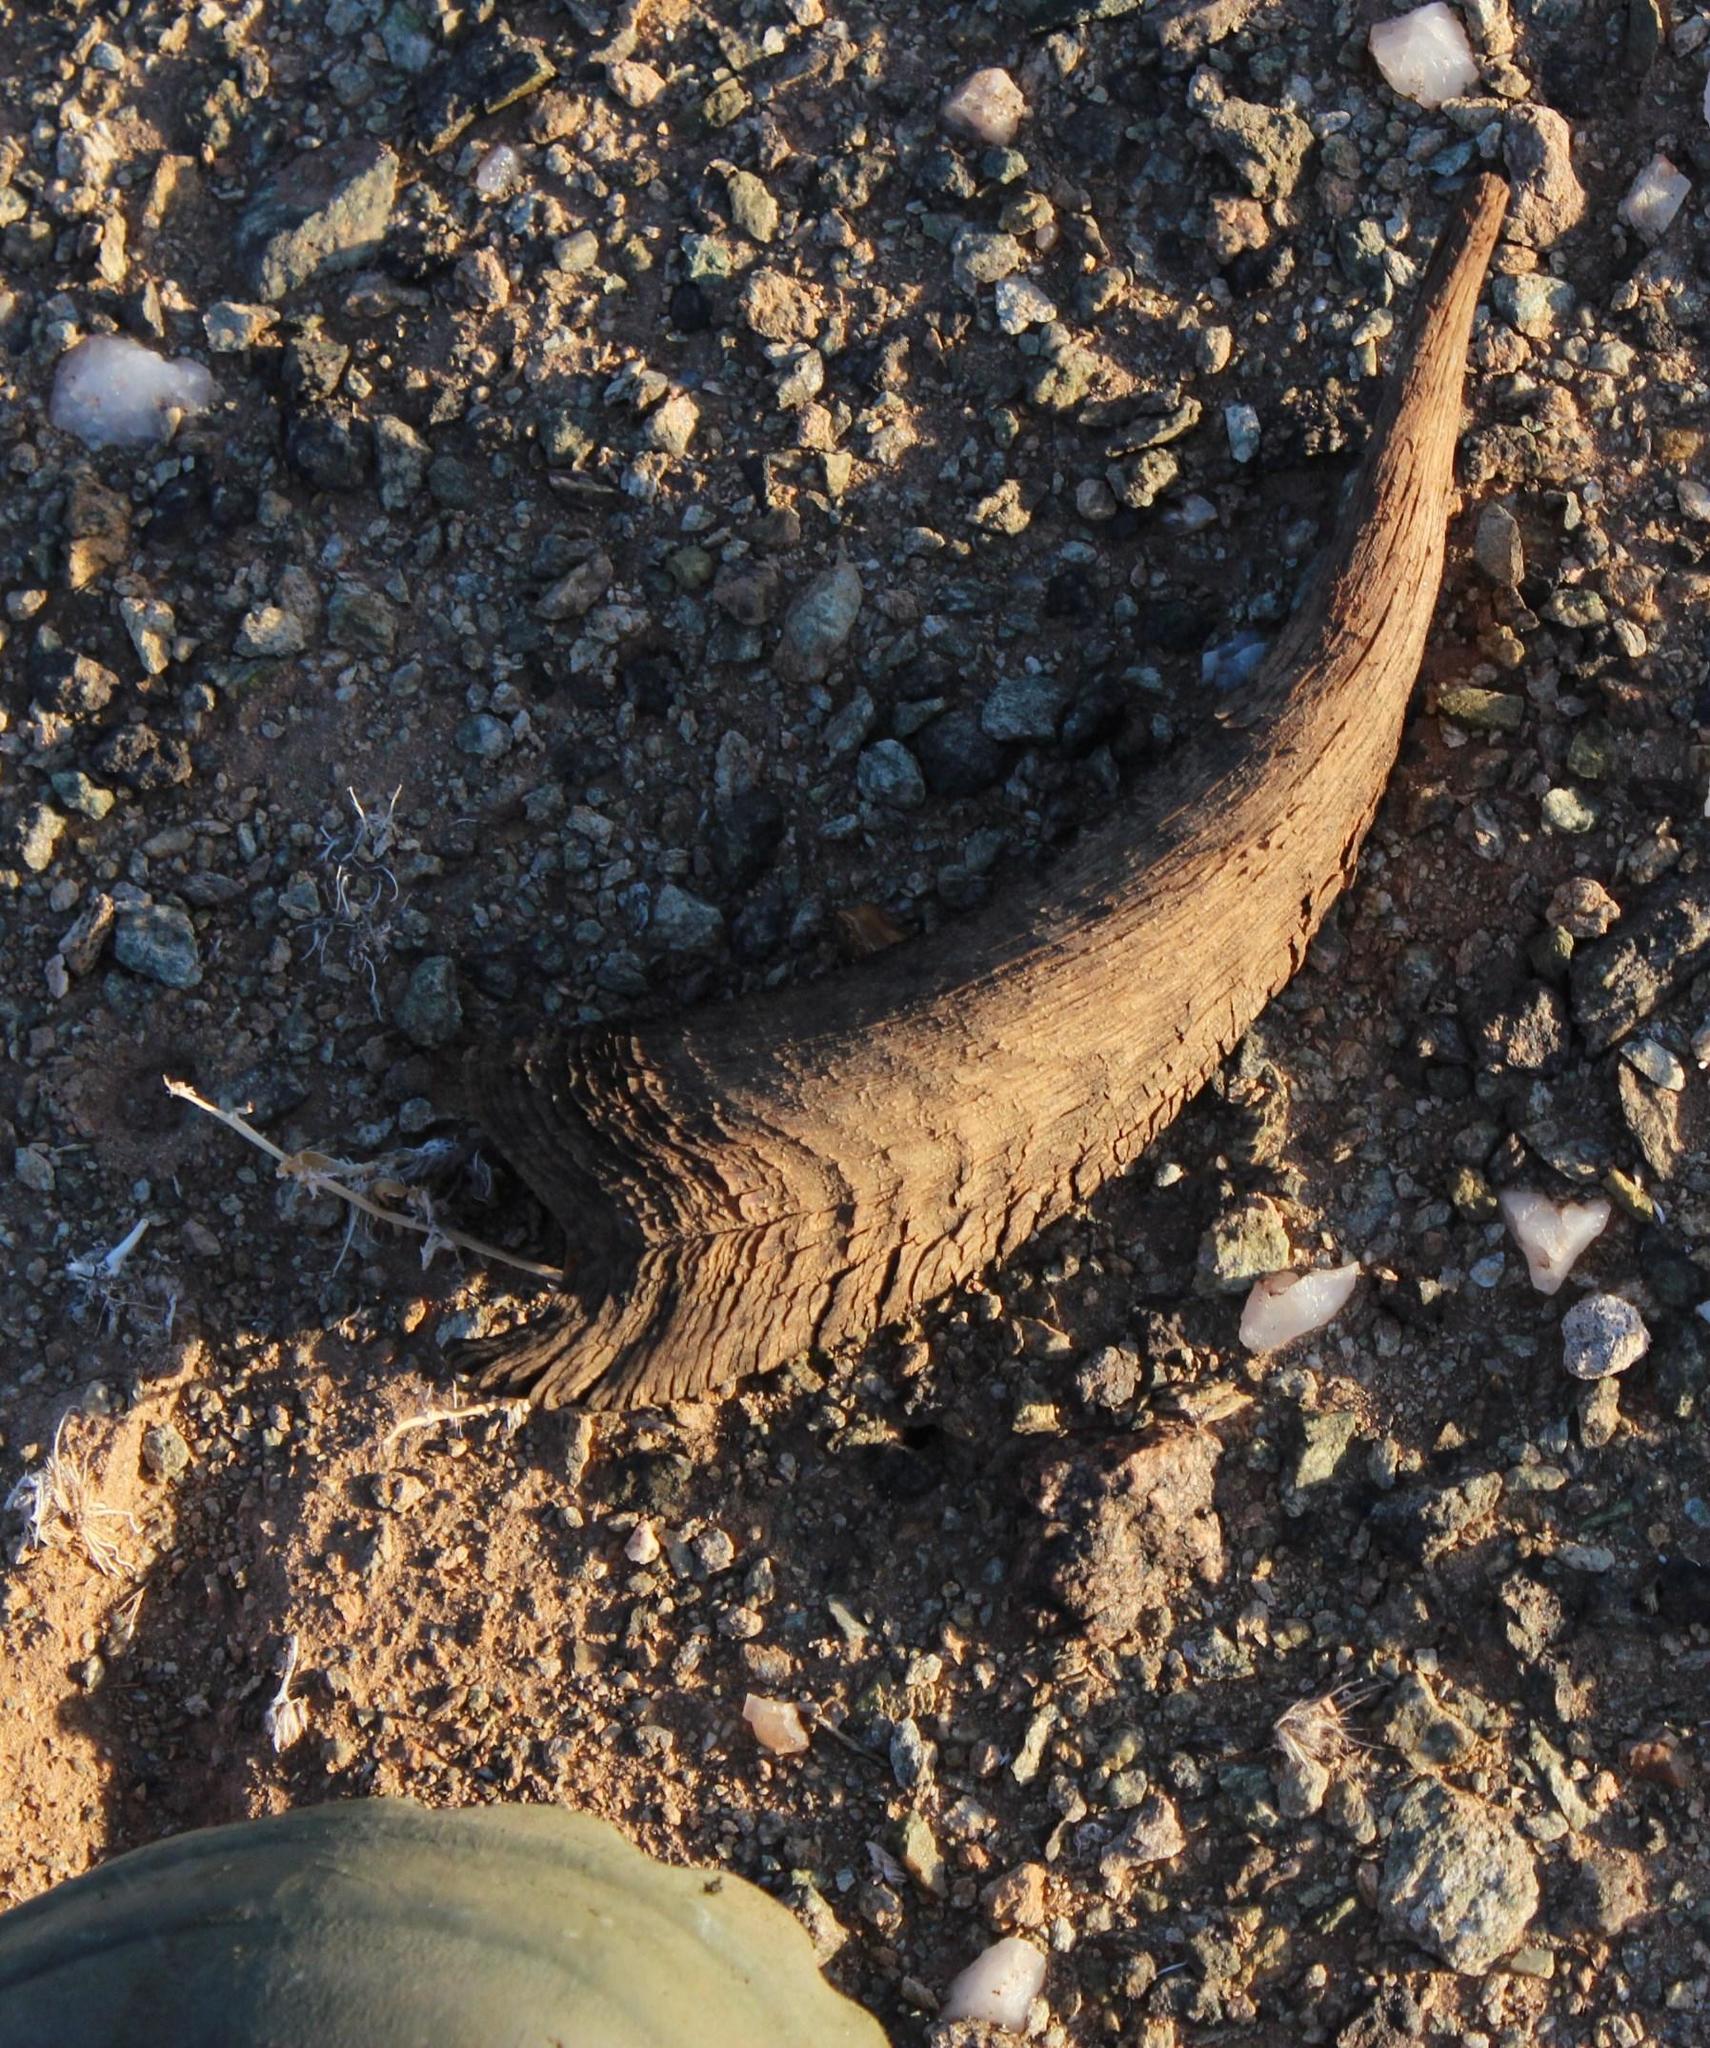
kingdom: Animalia
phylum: Chordata
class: Mammalia
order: Artiodactyla
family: Bovidae
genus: Capra
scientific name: Capra hircus
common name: Domestic goat
